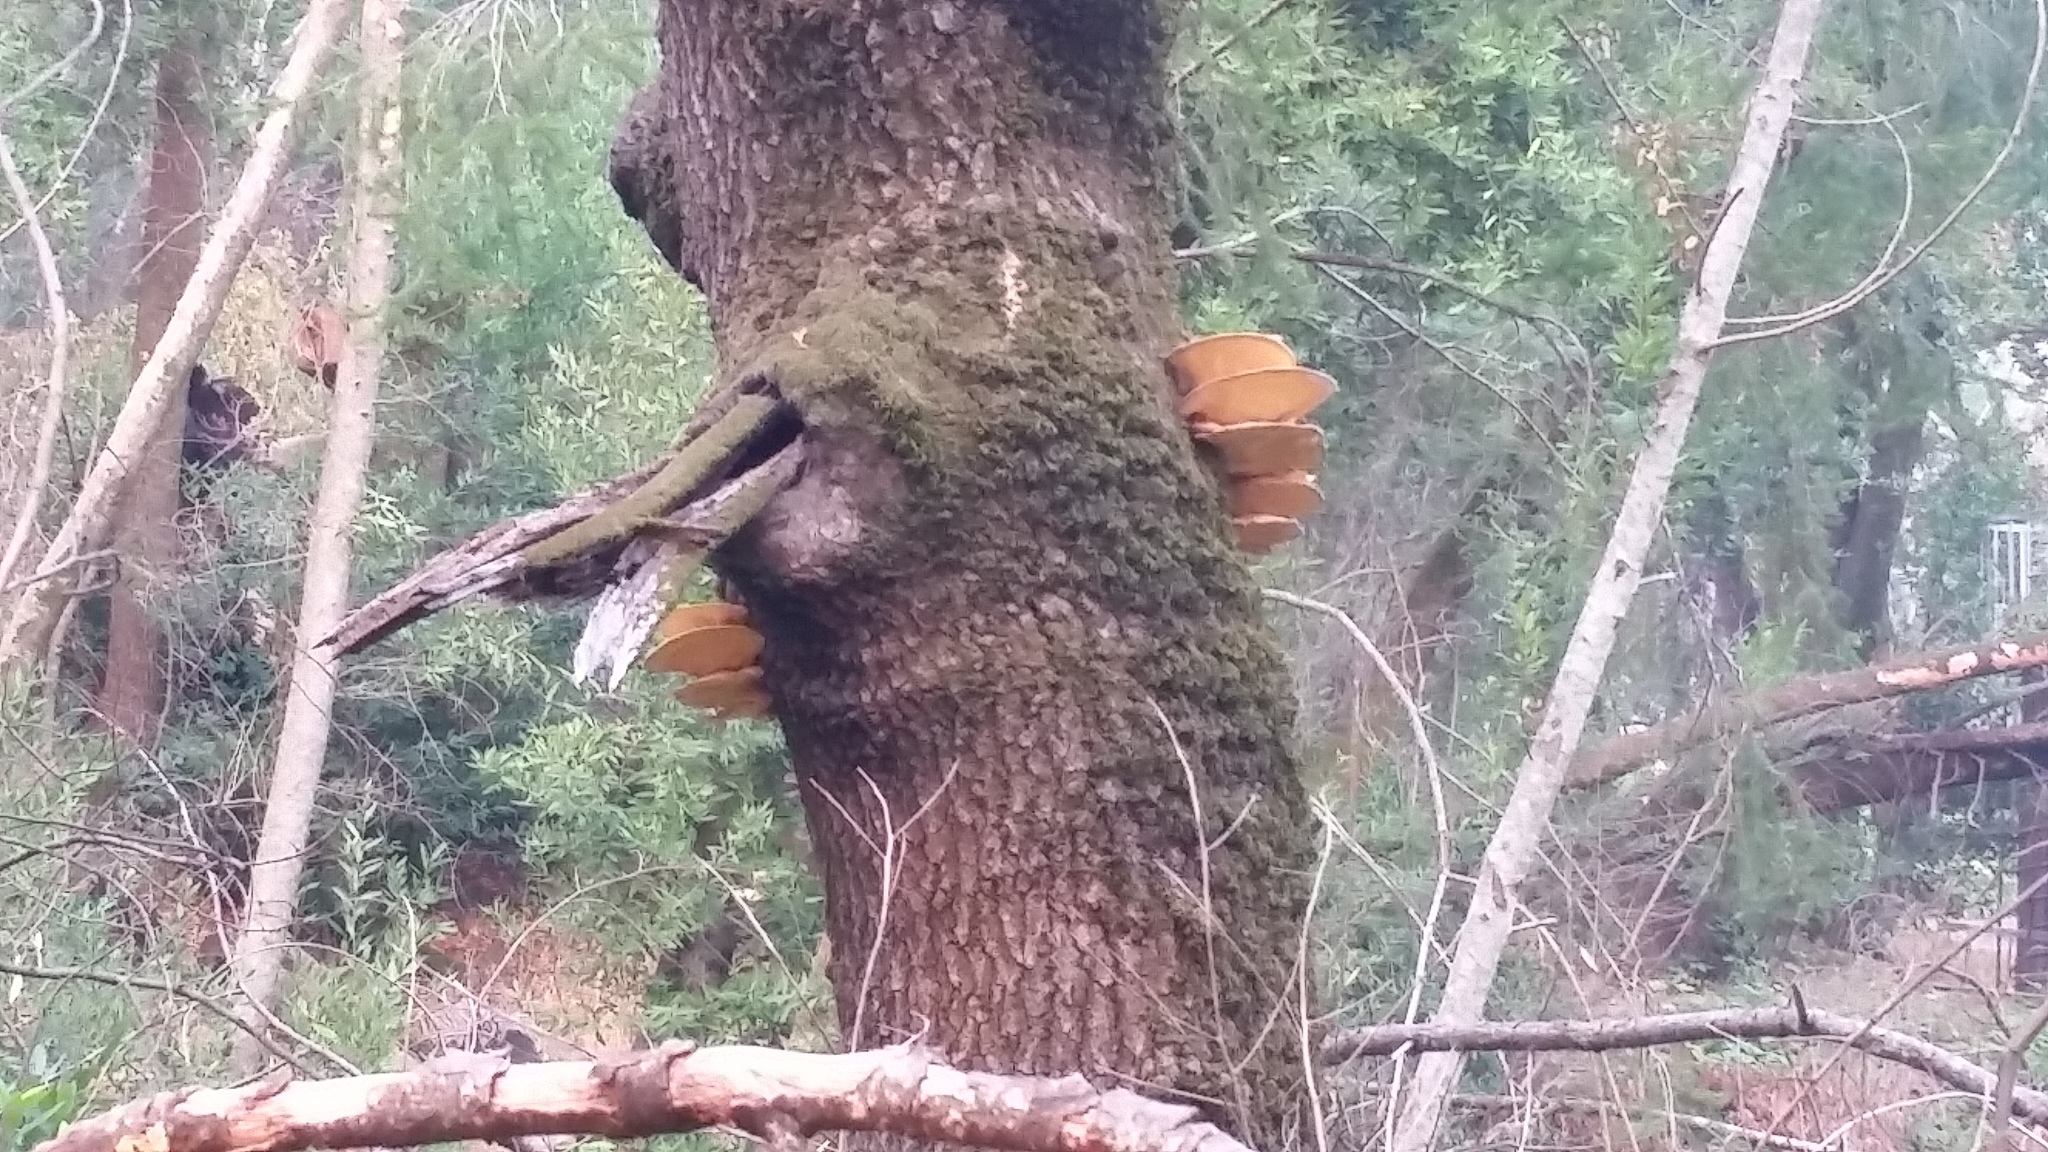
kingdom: Fungi
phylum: Basidiomycota
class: Agaricomycetes
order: Polyporales
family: Laetiporaceae
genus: Laetiporus
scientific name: Laetiporus gilbertsonii
